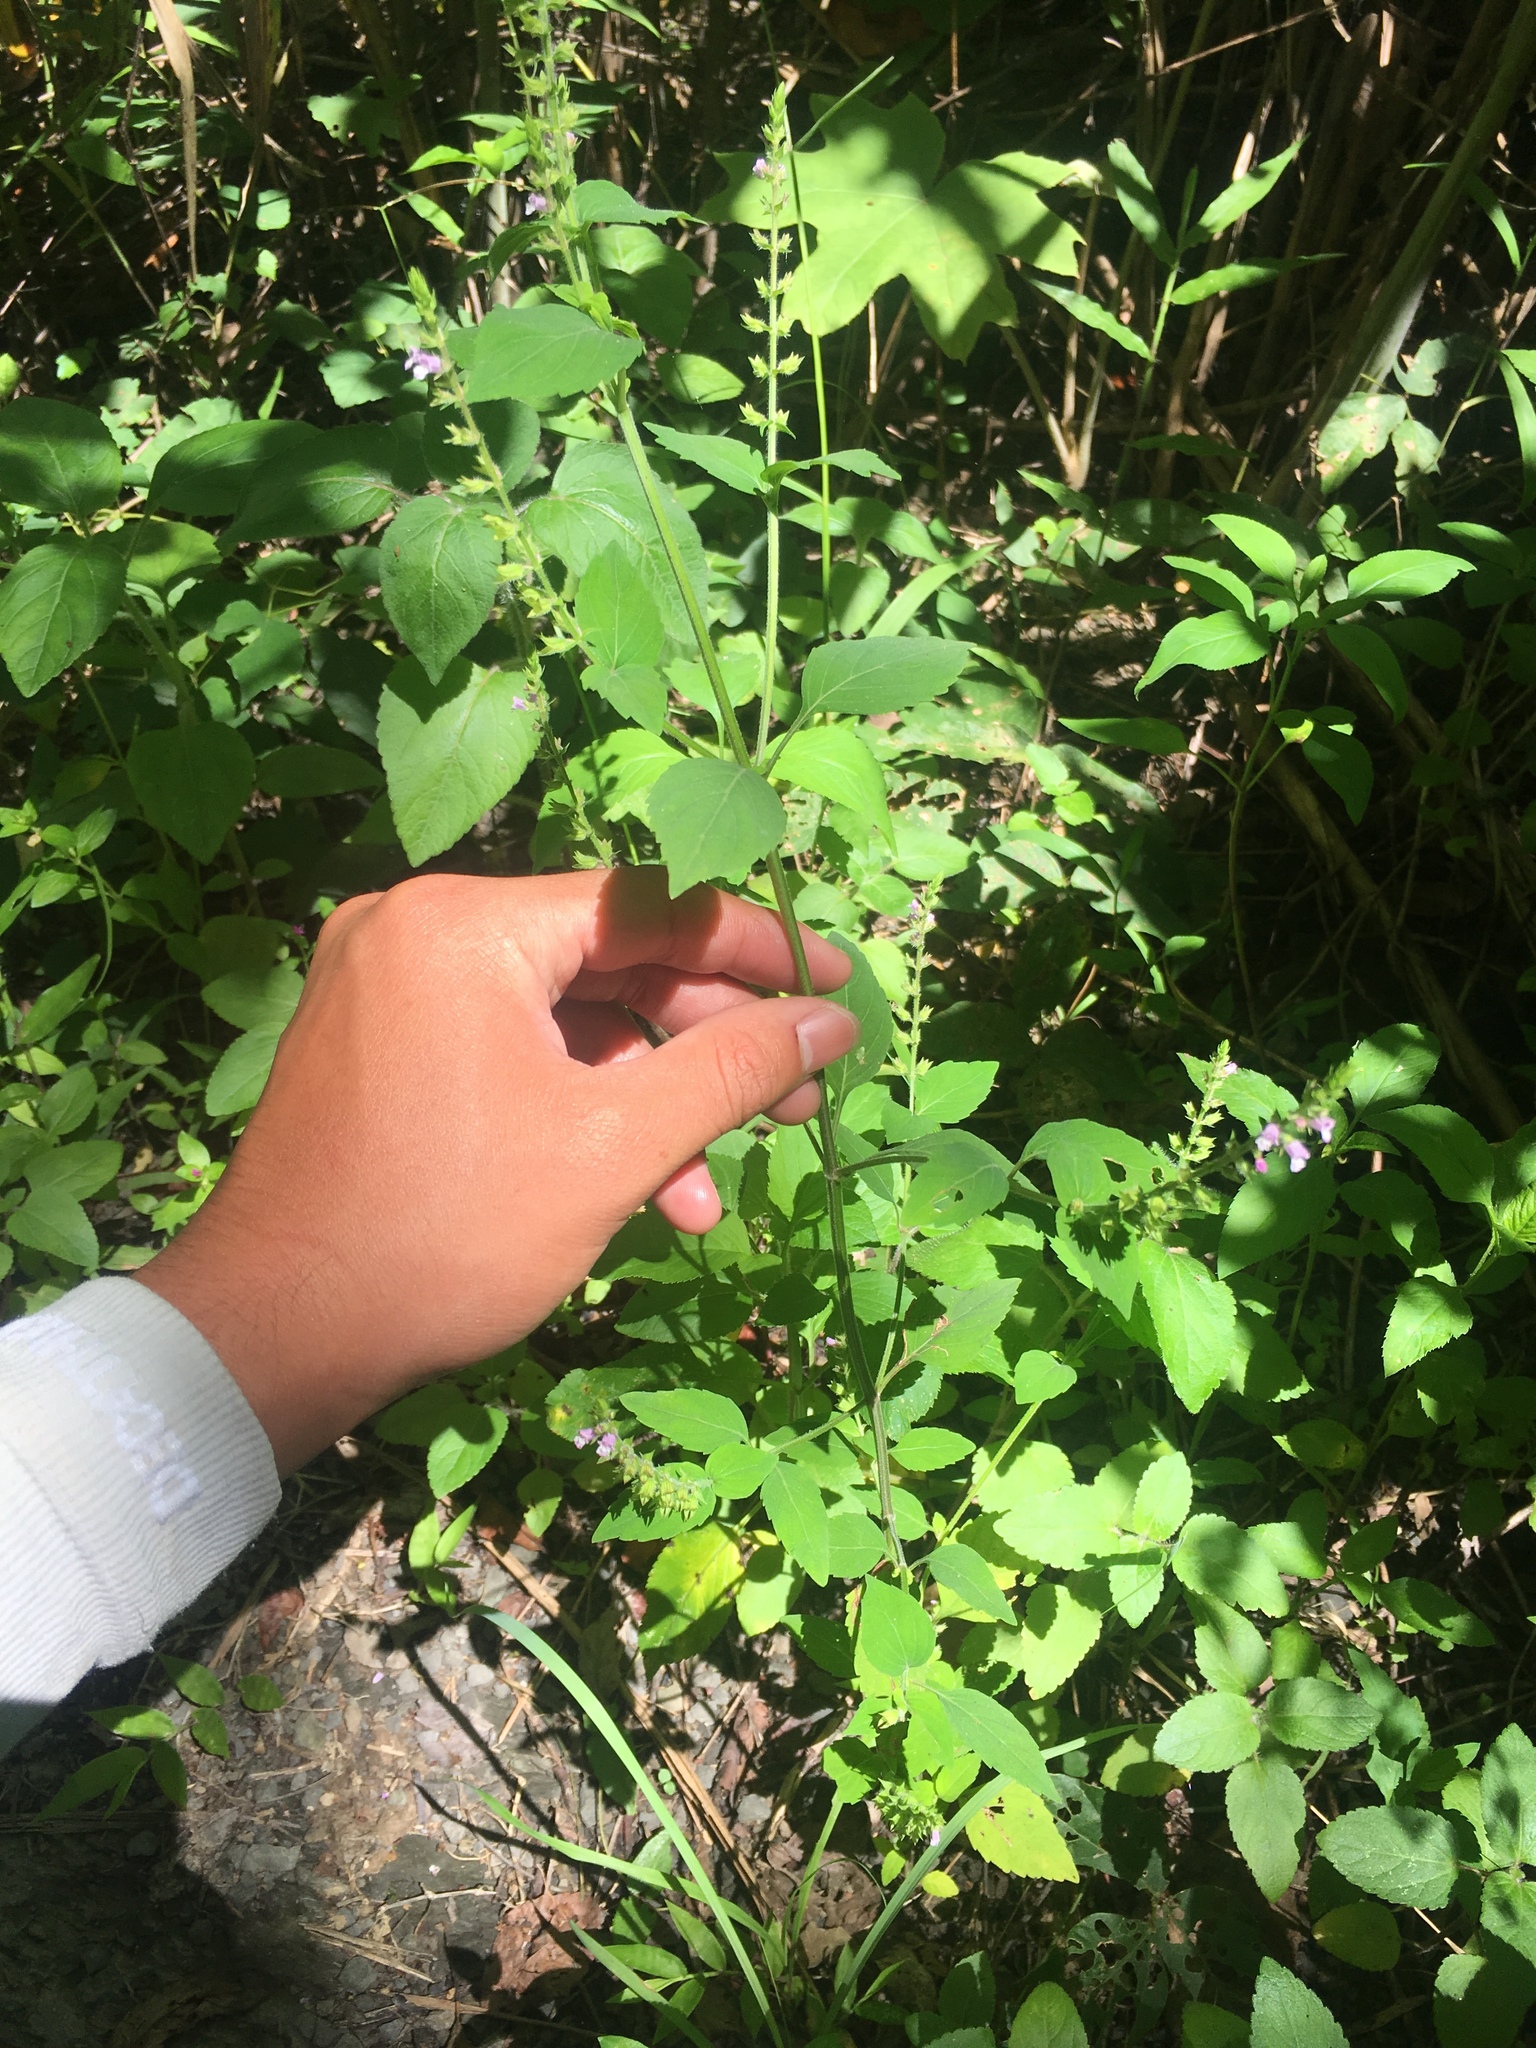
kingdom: Plantae
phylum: Tracheophyta
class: Magnoliopsida
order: Lamiales
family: Lamiaceae
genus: Mosla
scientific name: Mosla scabra
